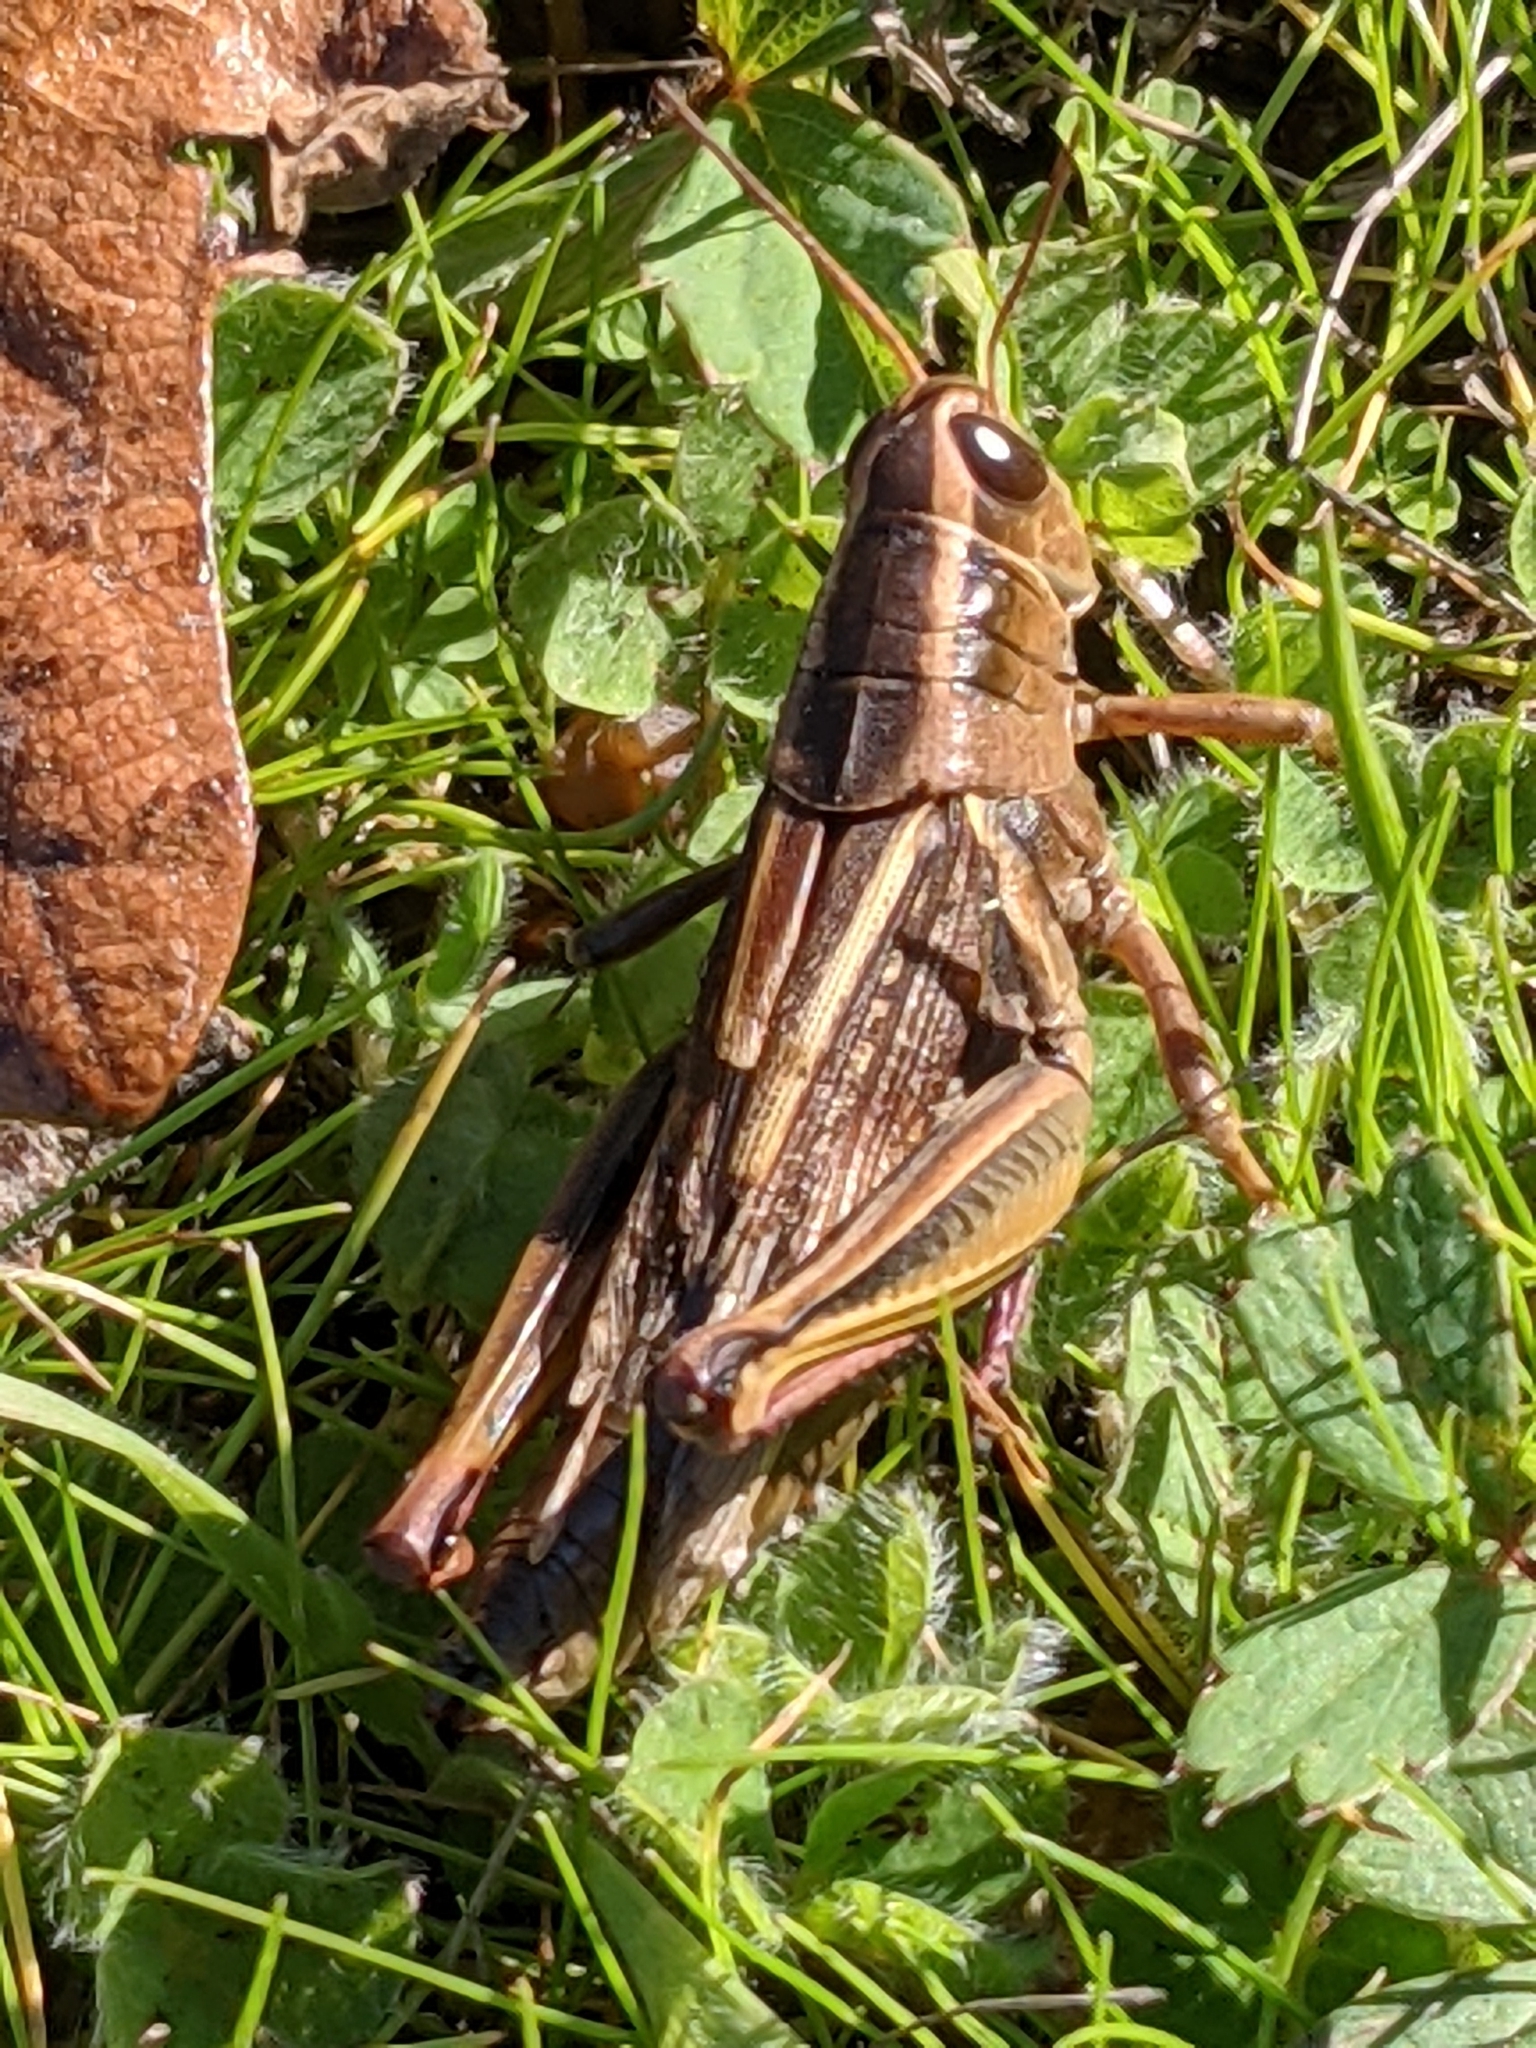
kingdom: Animalia
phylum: Arthropoda
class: Insecta
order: Orthoptera
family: Acrididae
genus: Melanoplus
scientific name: Melanoplus bivittatus
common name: Two-striped grasshopper
